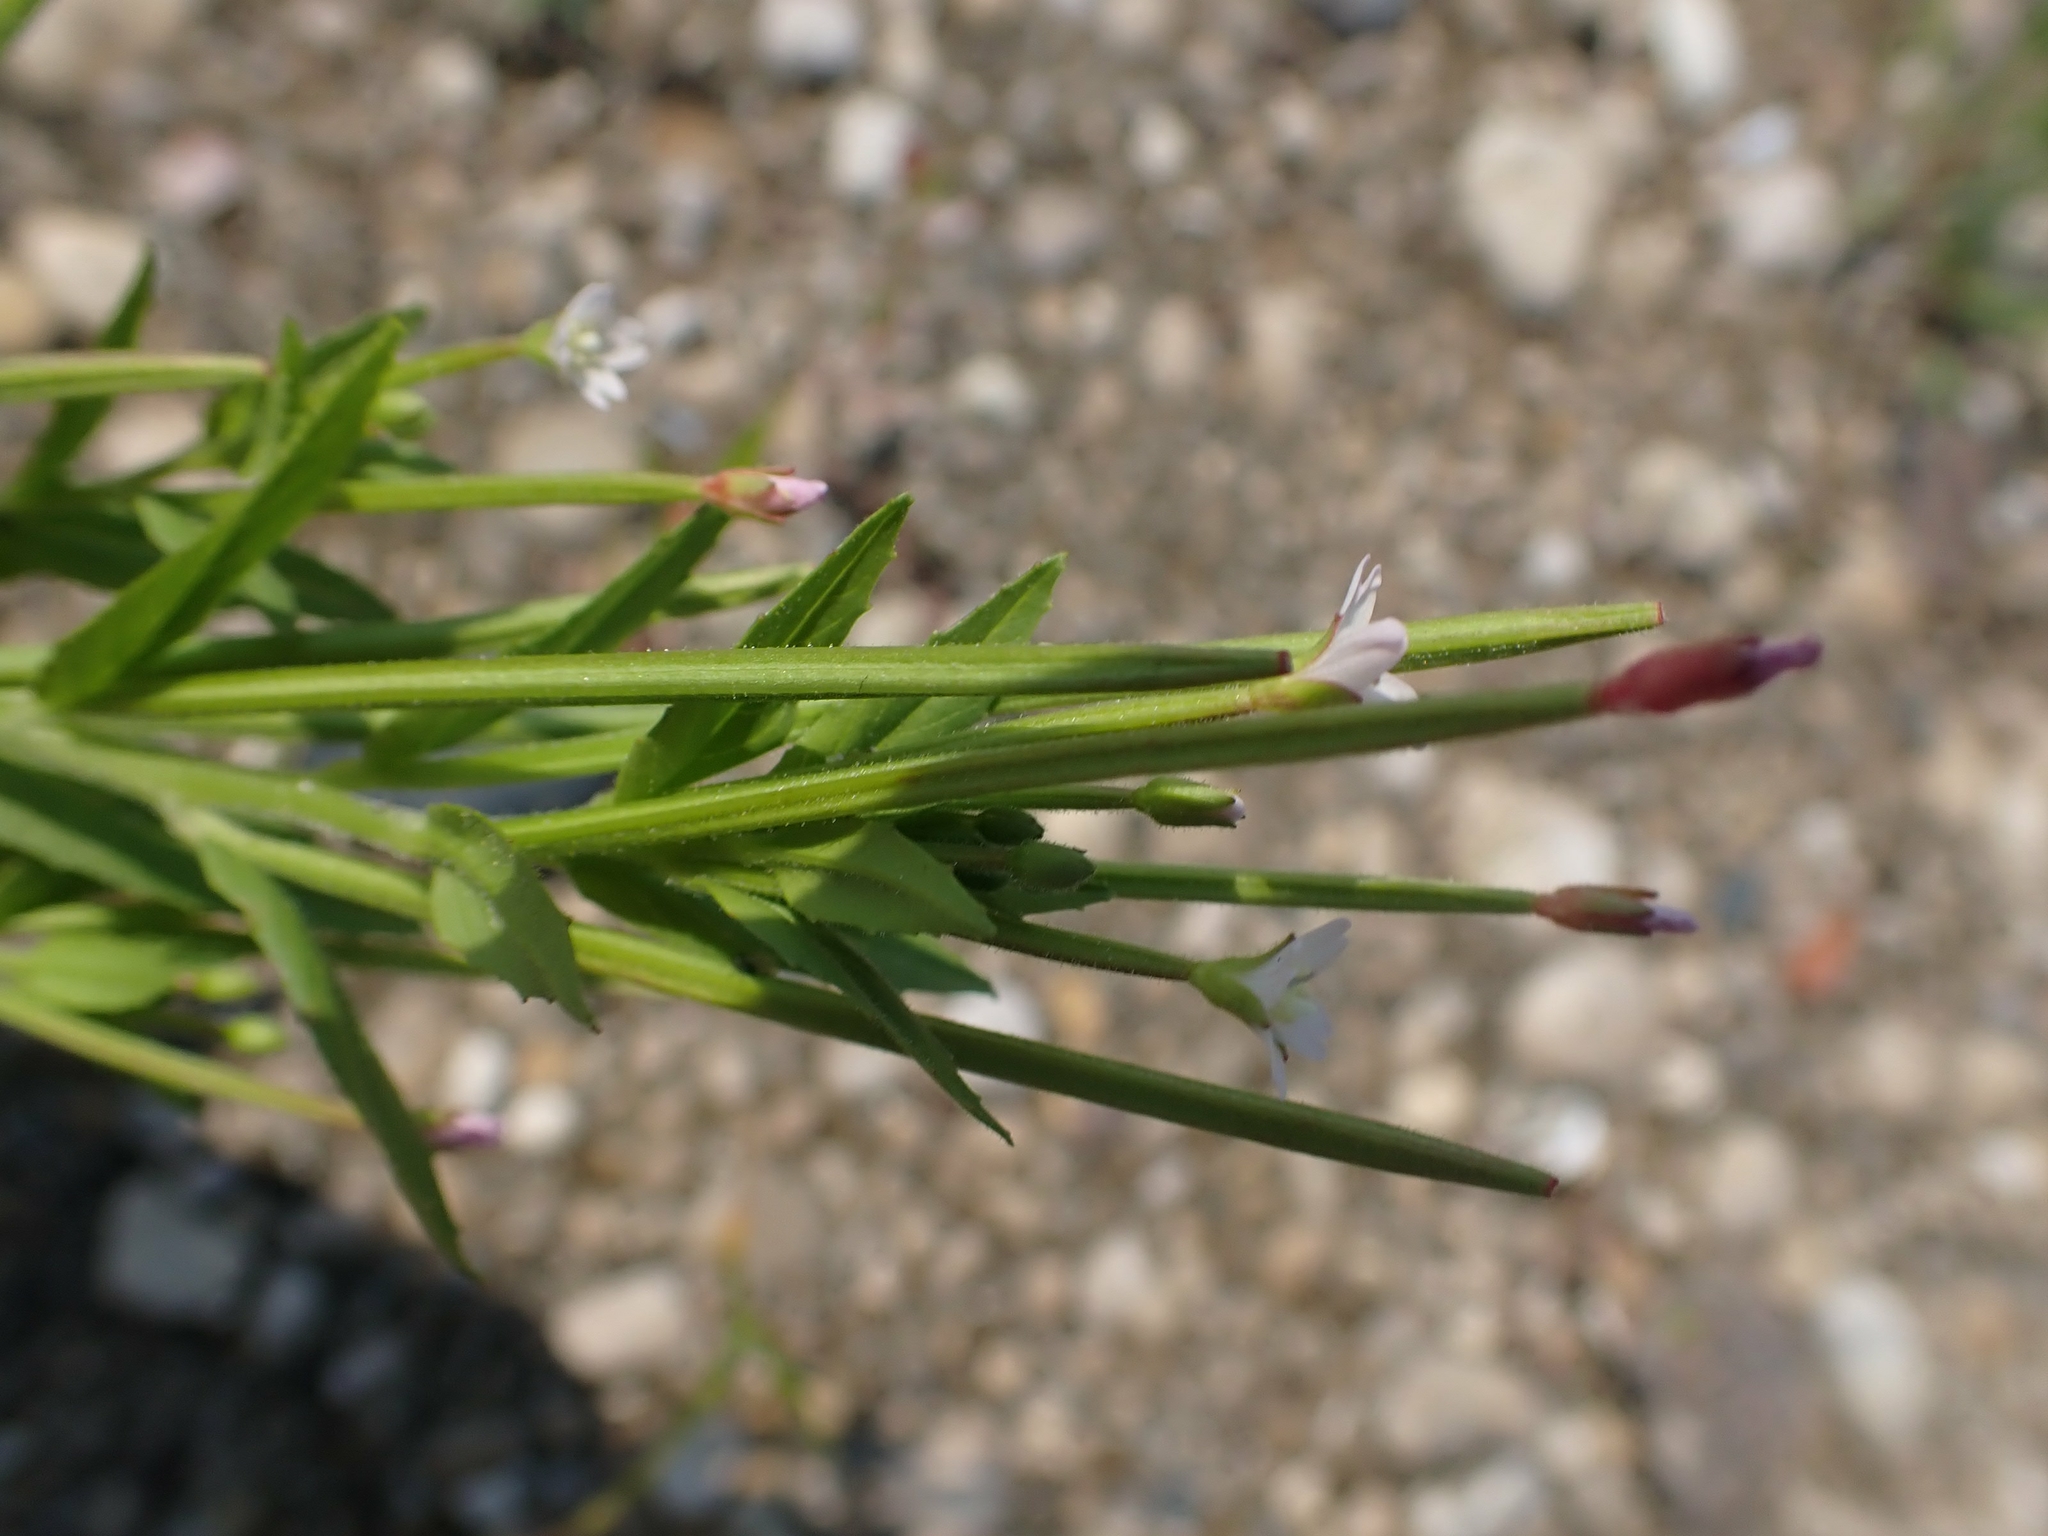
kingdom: Plantae
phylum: Tracheophyta
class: Magnoliopsida
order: Myrtales
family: Onagraceae
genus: Epilobium
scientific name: Epilobium ciliatum
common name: American willowherb
